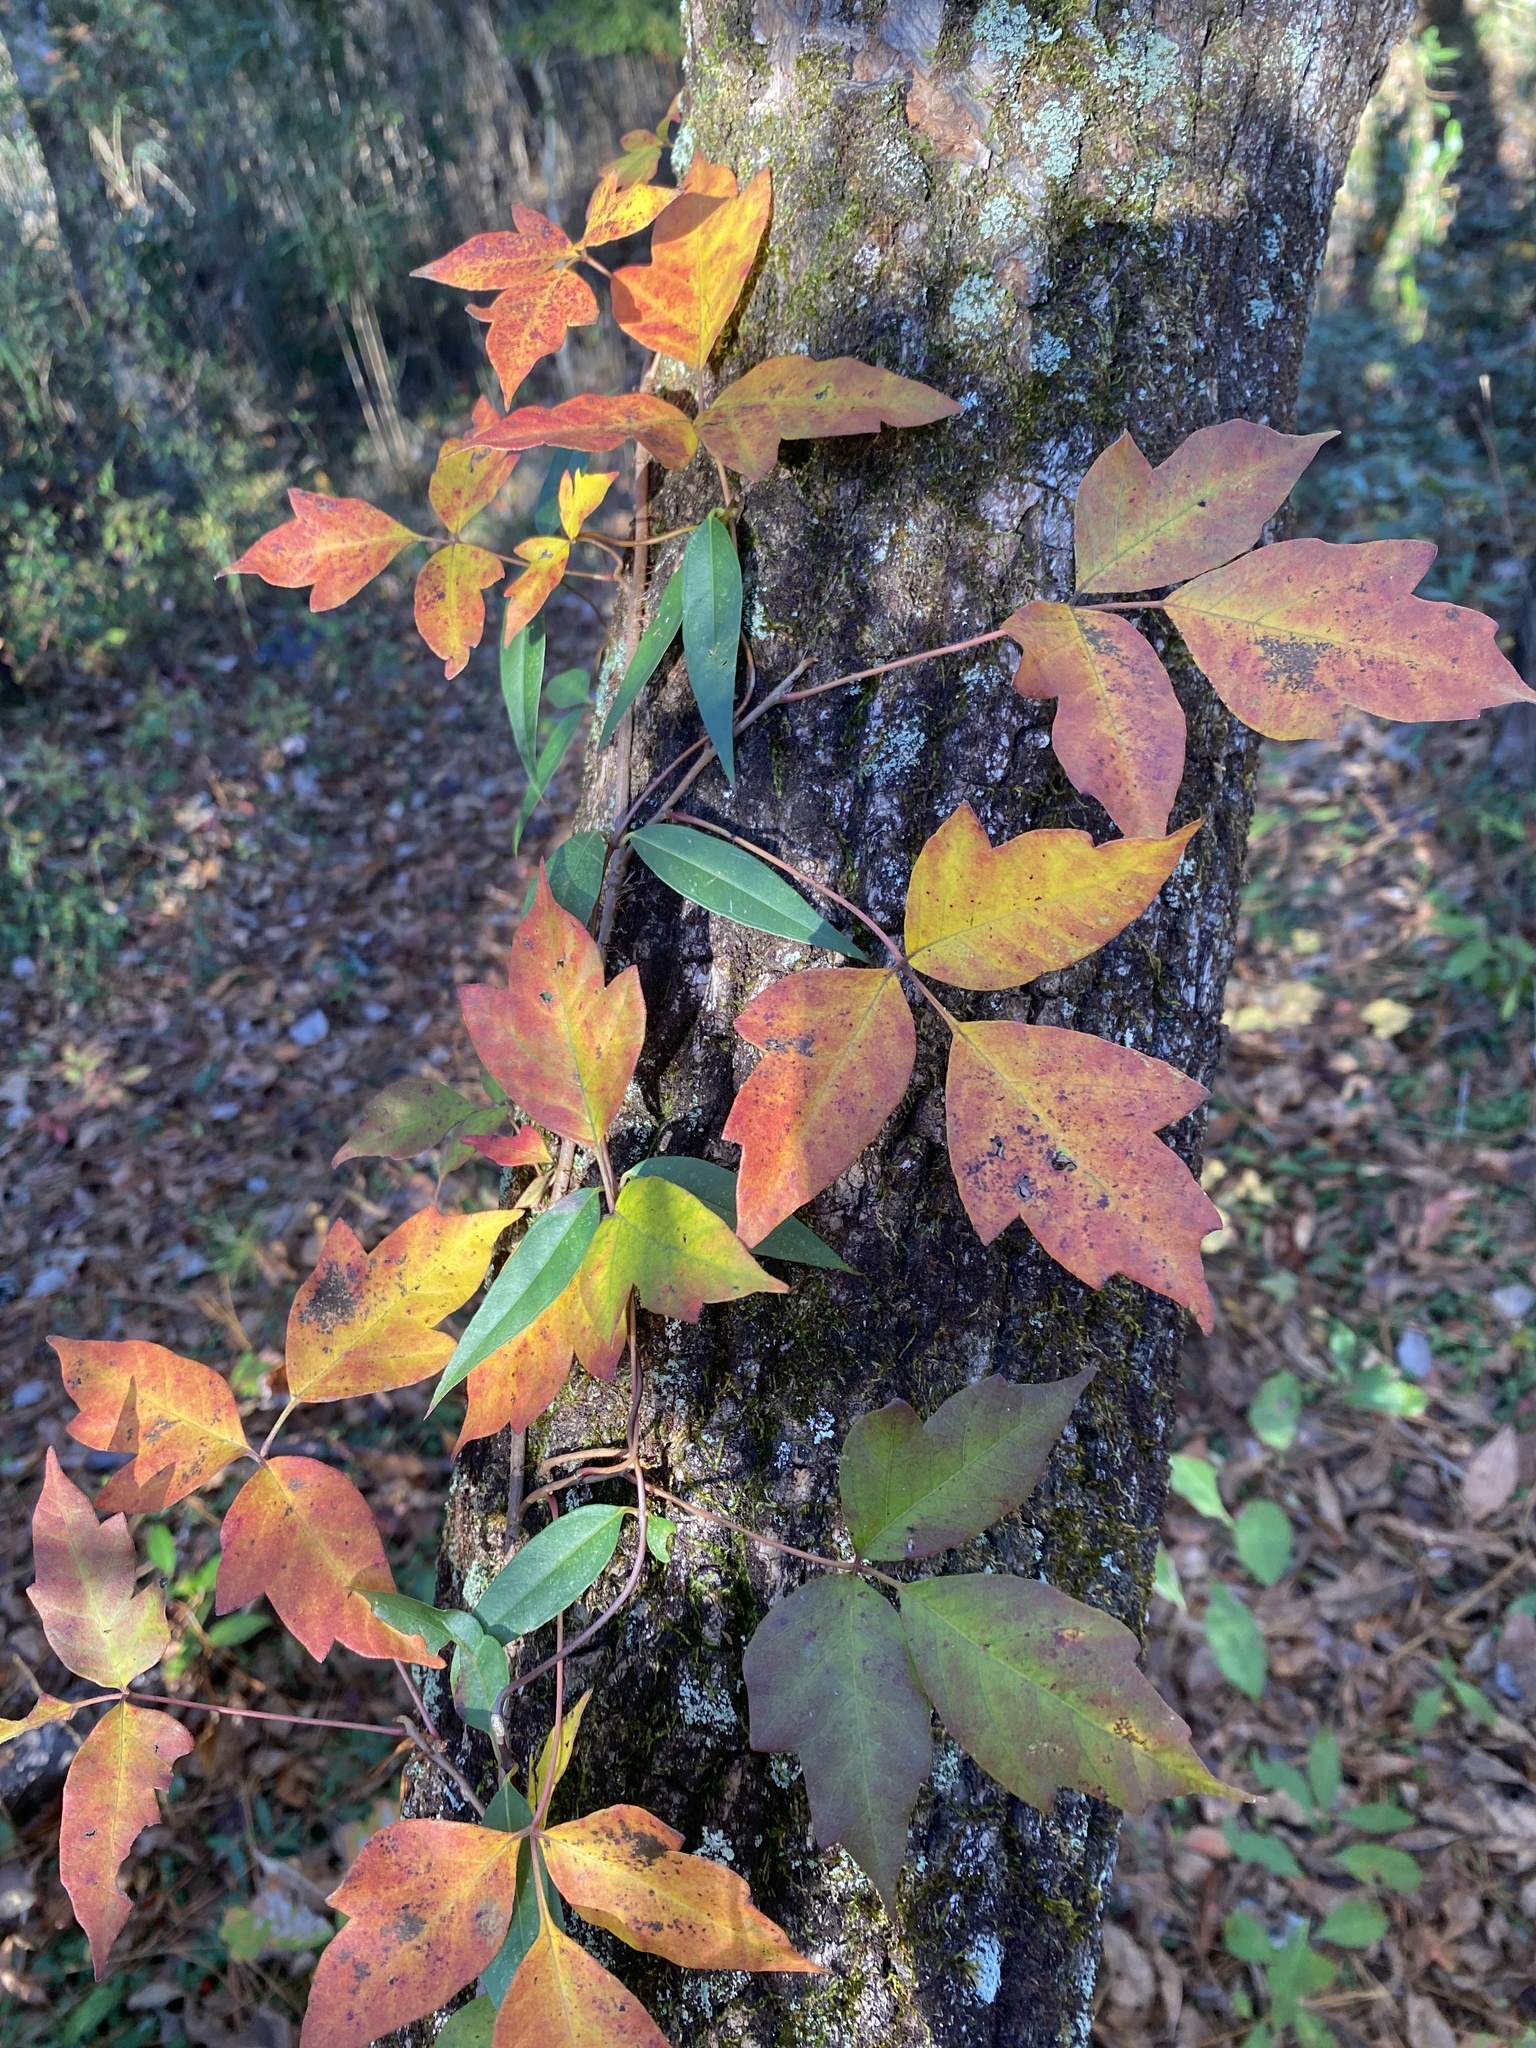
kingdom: Plantae
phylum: Tracheophyta
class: Magnoliopsida
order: Sapindales
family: Anacardiaceae
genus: Toxicodendron
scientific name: Toxicodendron radicans
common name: Poison ivy
